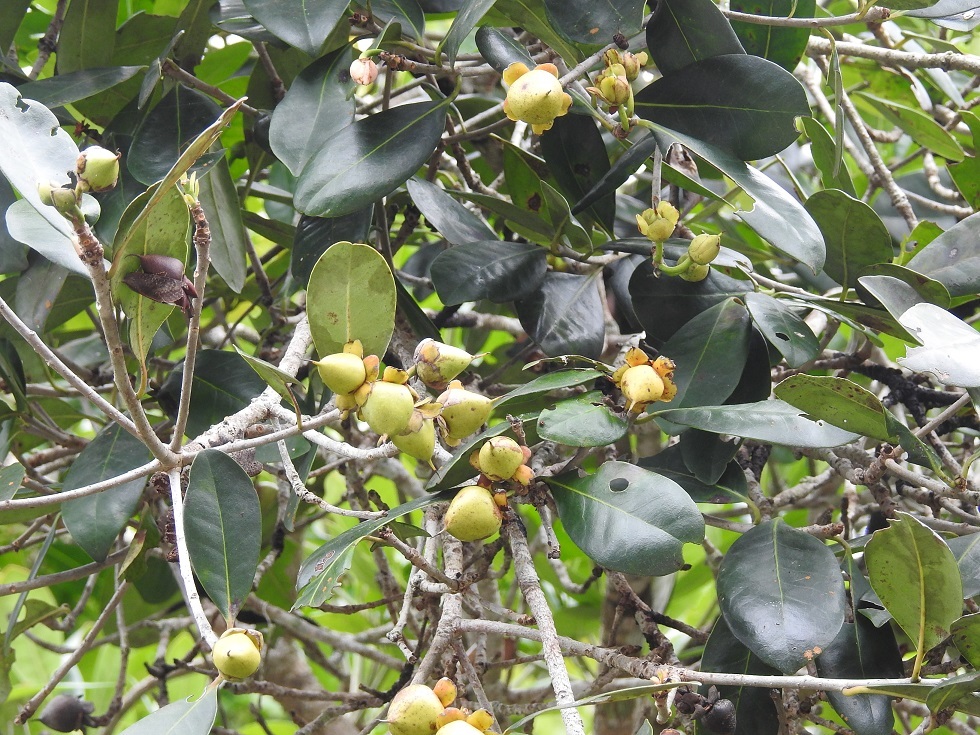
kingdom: Plantae
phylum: Tracheophyta
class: Magnoliopsida
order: Ericales
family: Pentaphylacaceae
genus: Ternstroemia
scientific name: Ternstroemia tepezapote
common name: Copey vera
